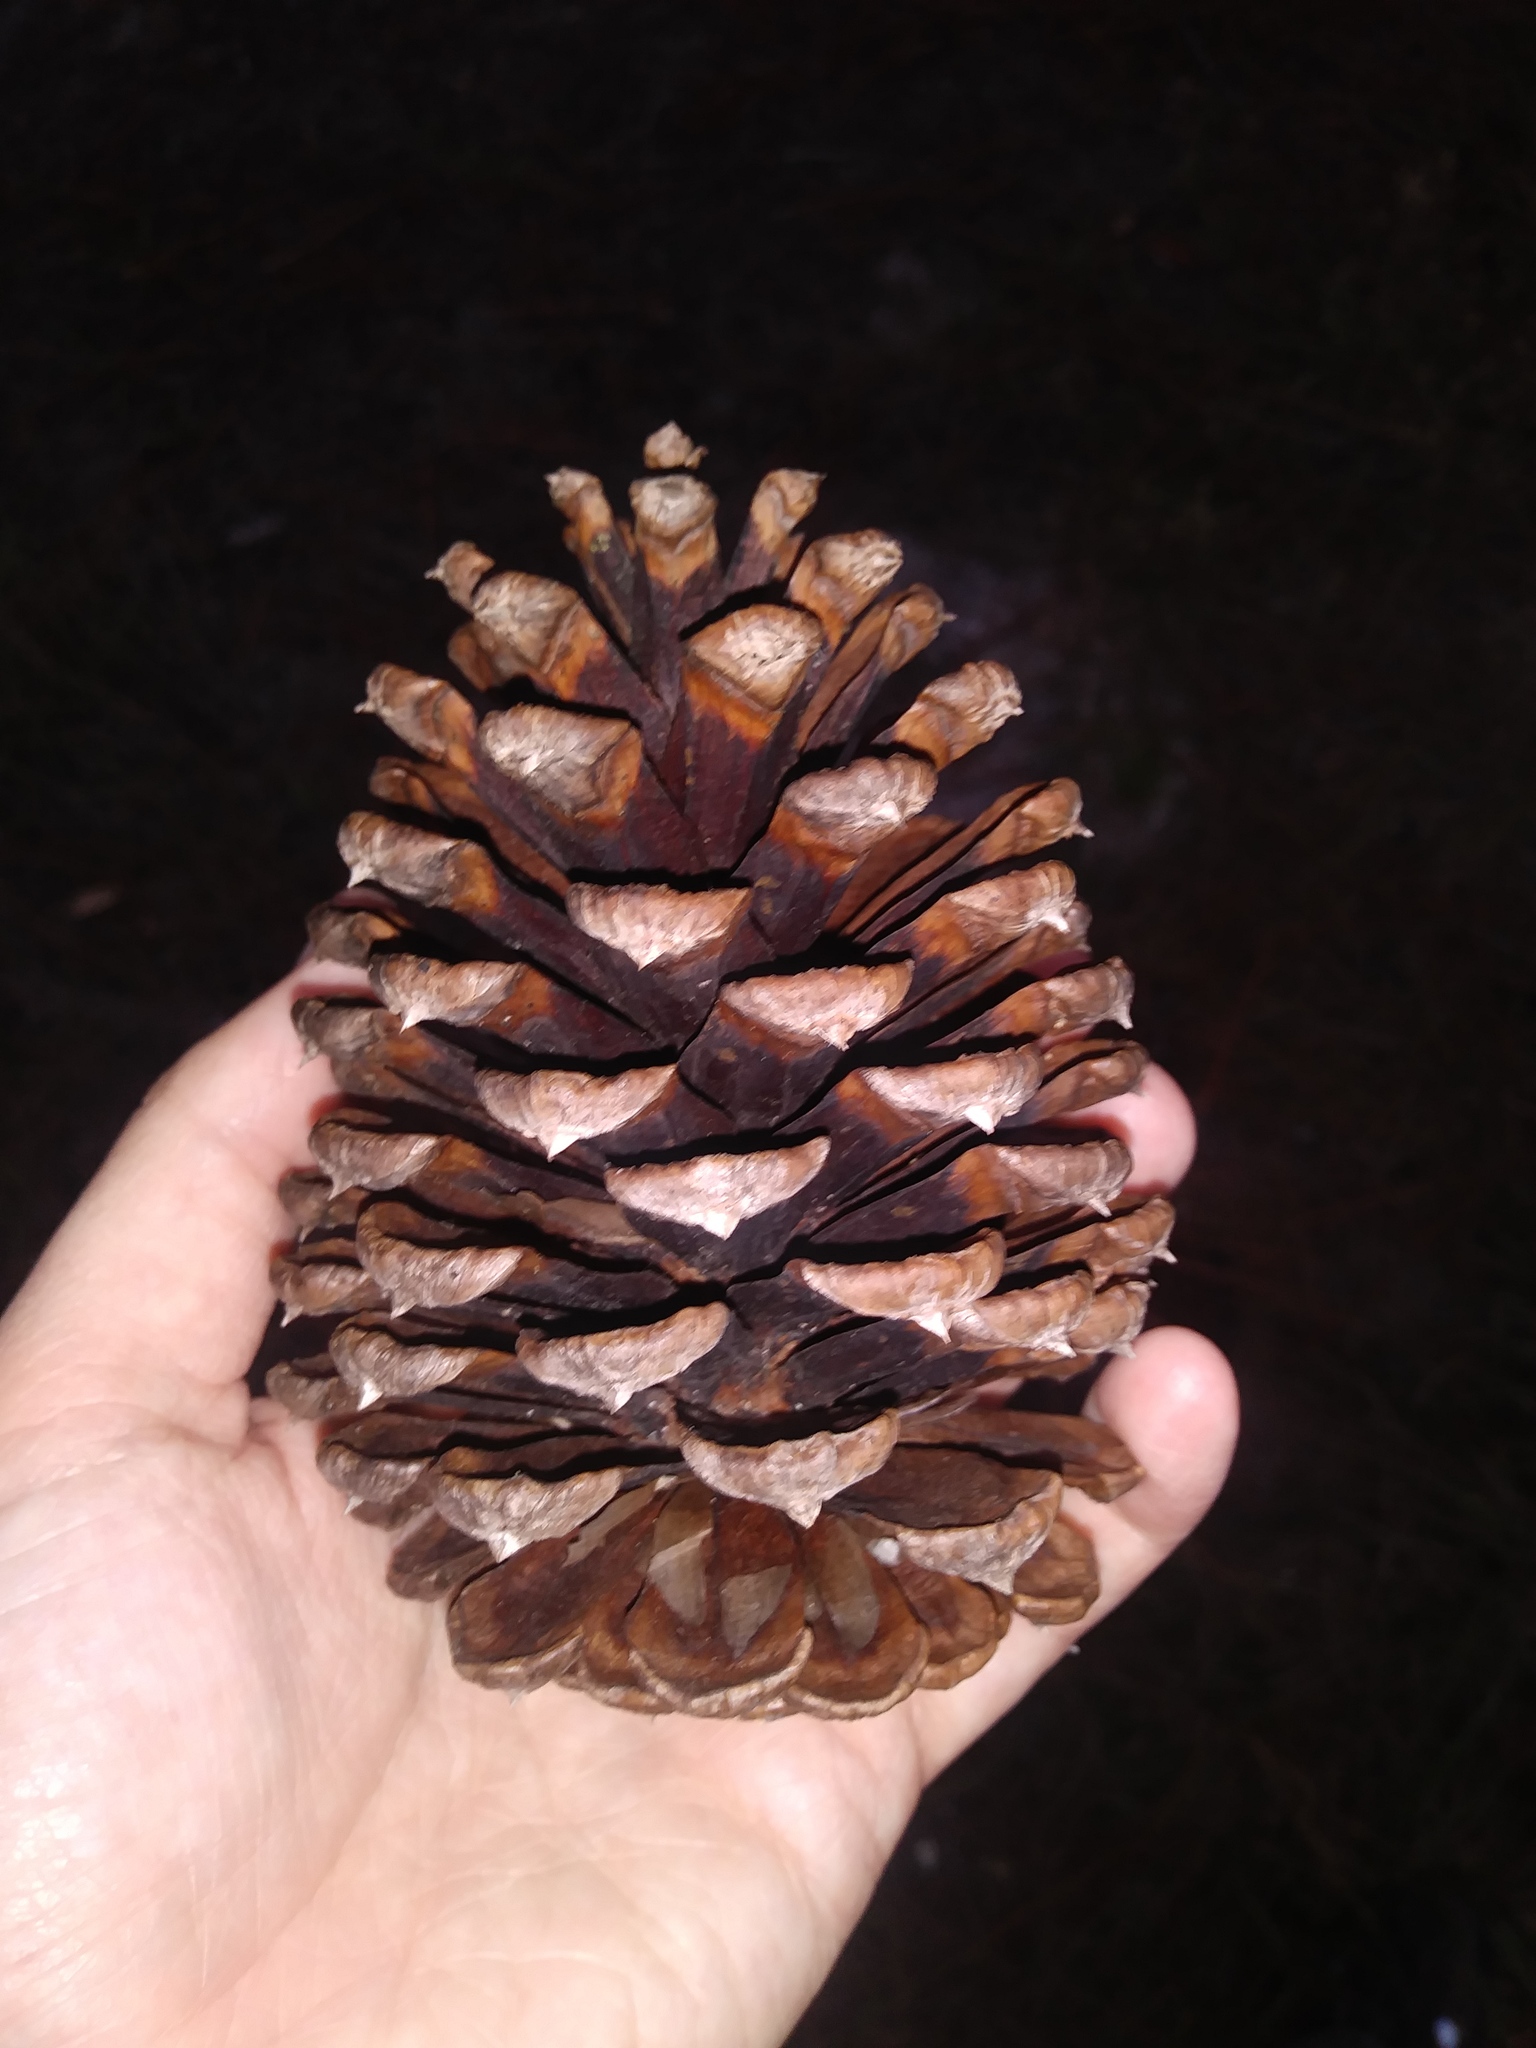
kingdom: Plantae
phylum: Tracheophyta
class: Pinopsida
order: Pinales
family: Pinaceae
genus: Pinus
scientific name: Pinus elliottii
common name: Slash pine
